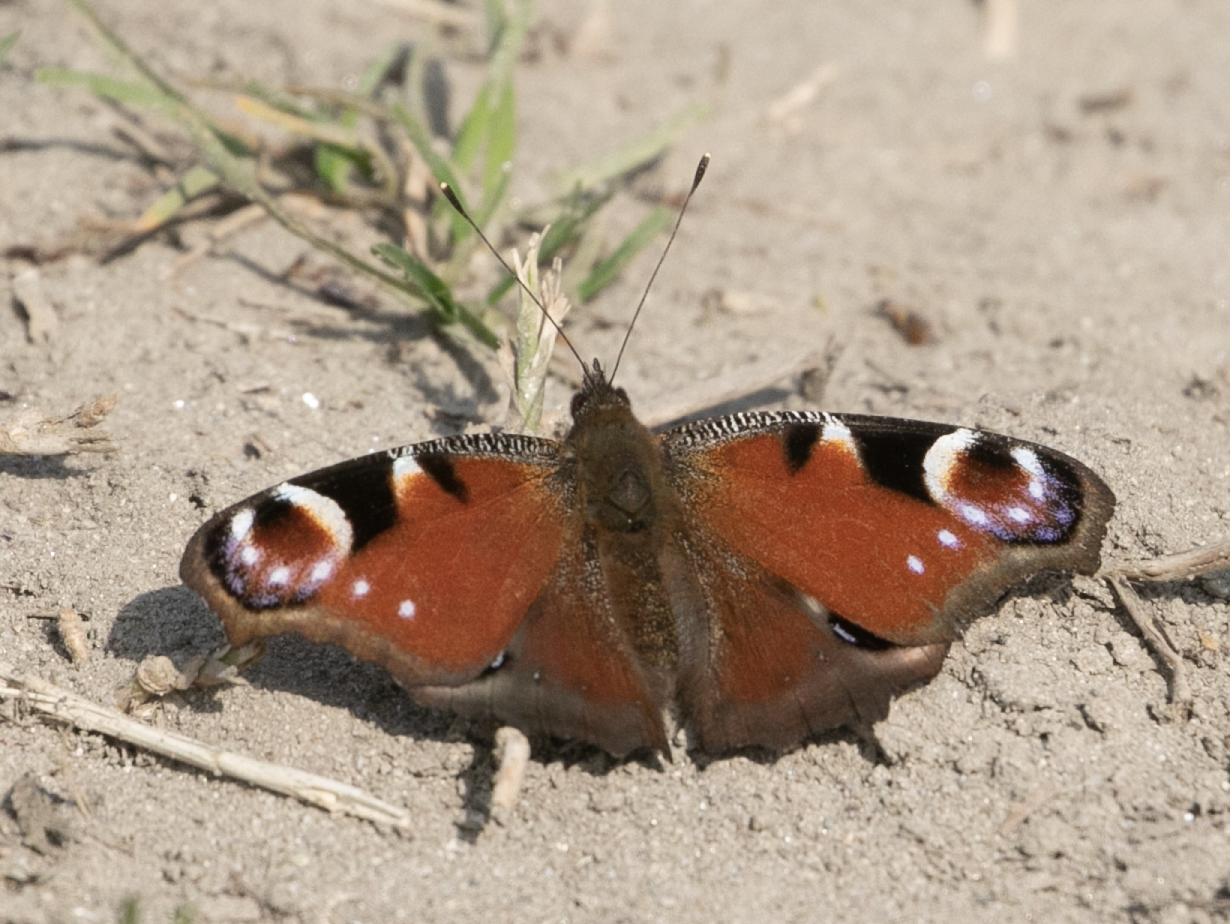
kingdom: Animalia
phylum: Arthropoda
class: Insecta
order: Lepidoptera
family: Nymphalidae
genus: Aglais
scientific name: Aglais io
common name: Peacock
